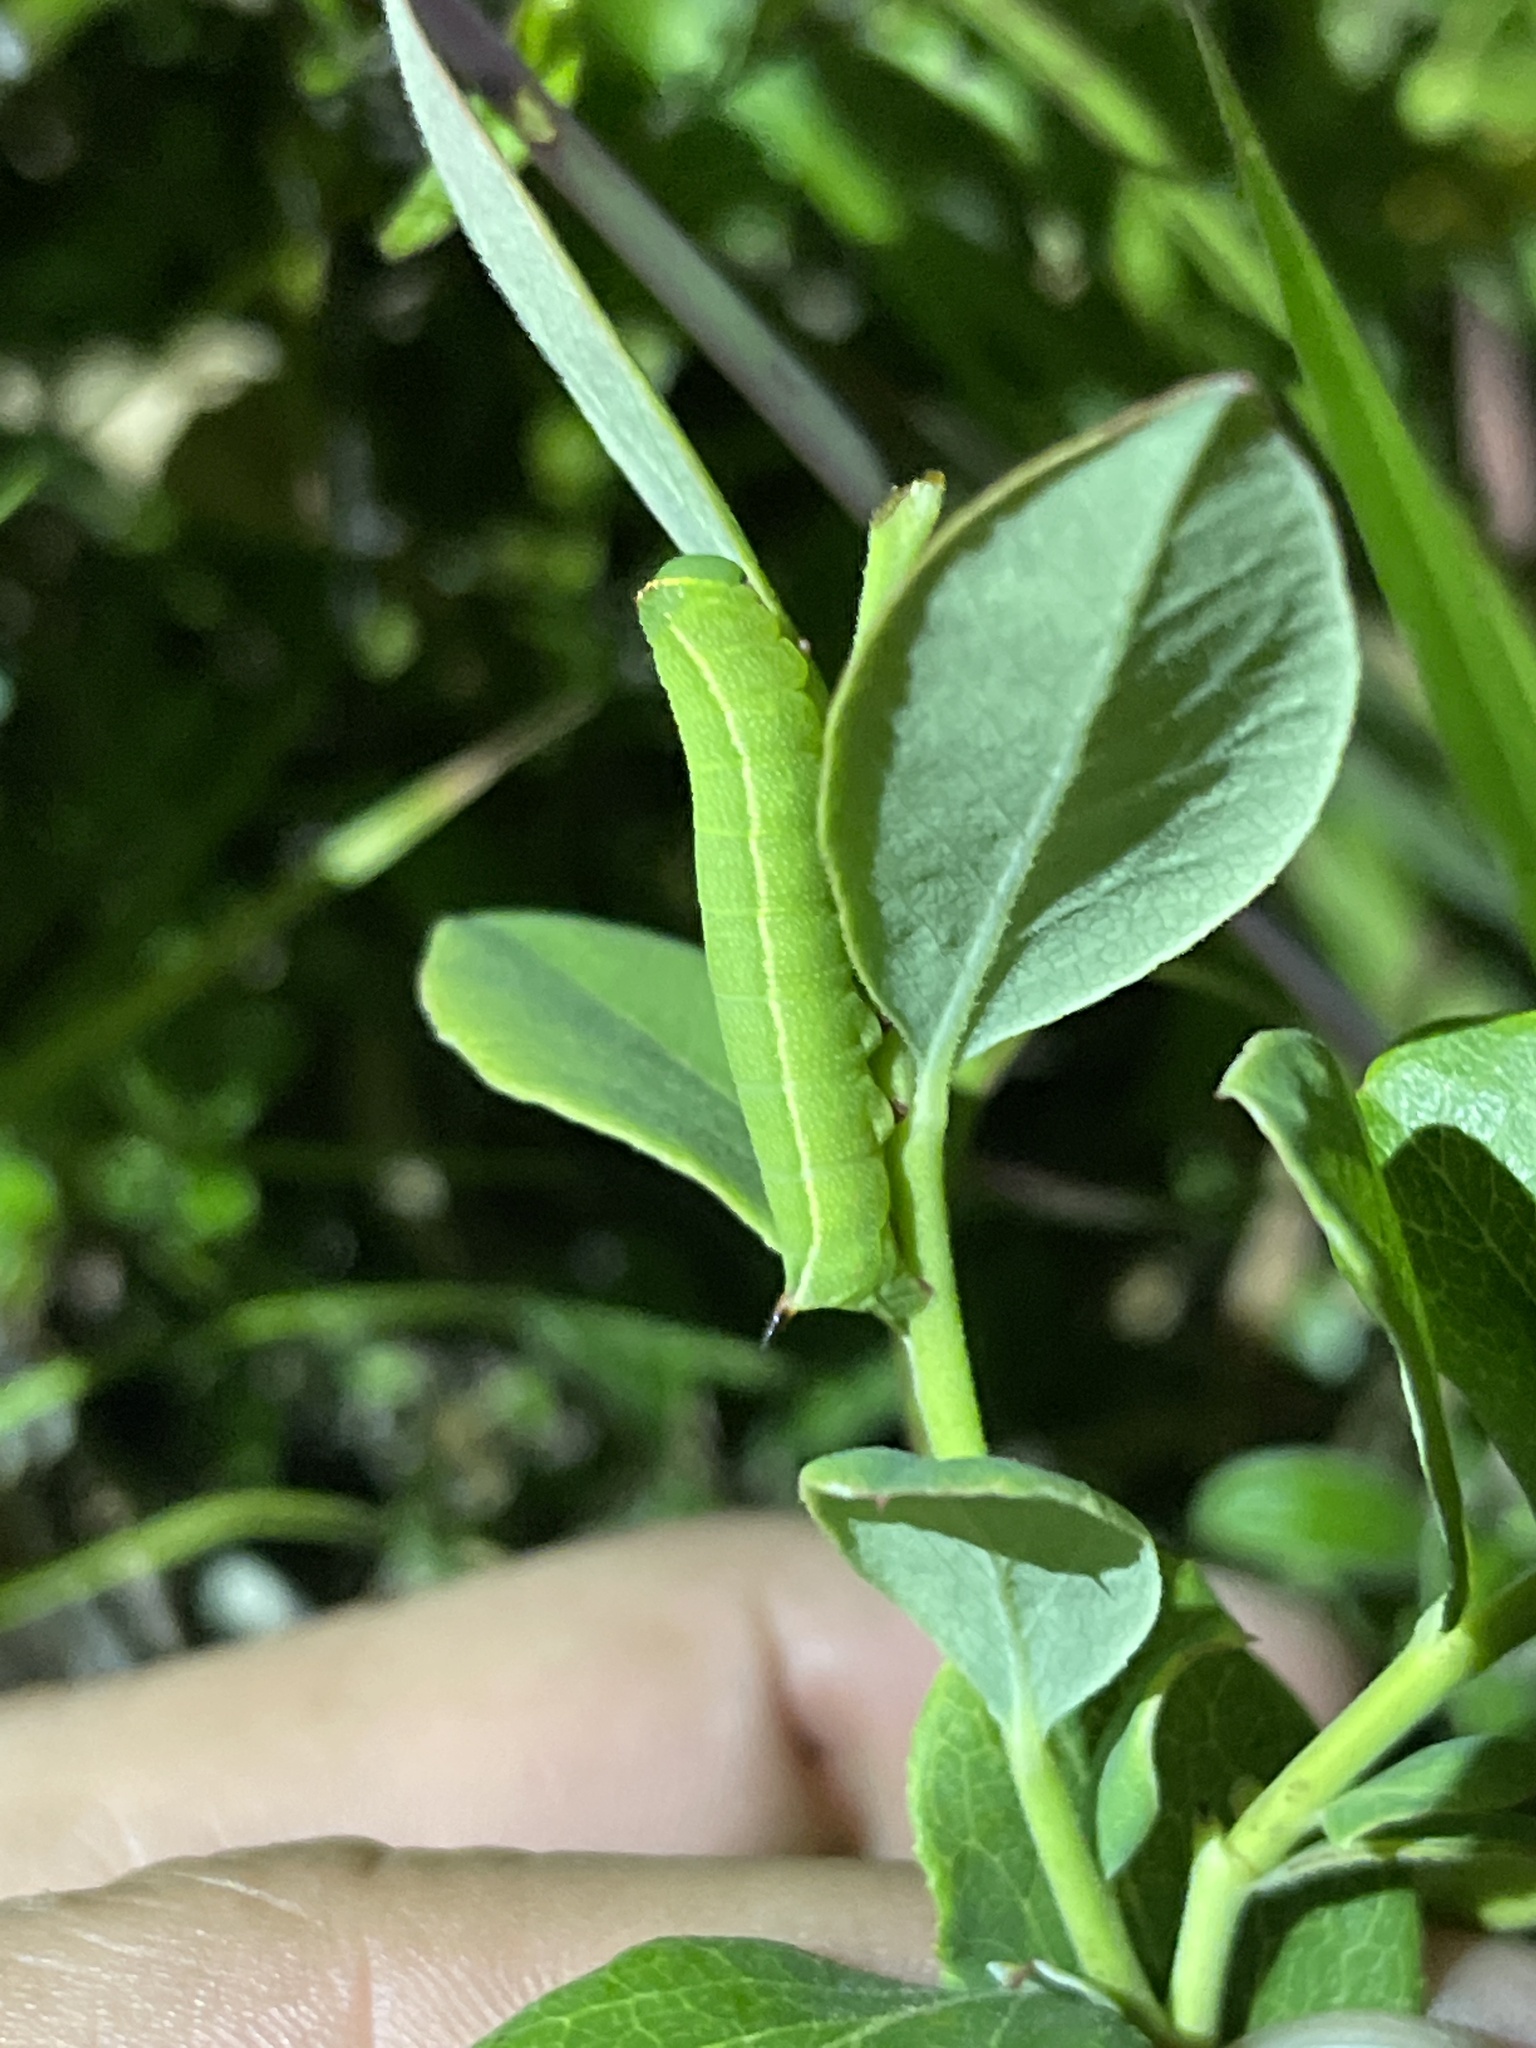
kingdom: Animalia
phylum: Arthropoda
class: Insecta
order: Lepidoptera
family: Sphingidae
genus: Hemaris
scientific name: Hemaris gracilis
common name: Graceful clearwing
